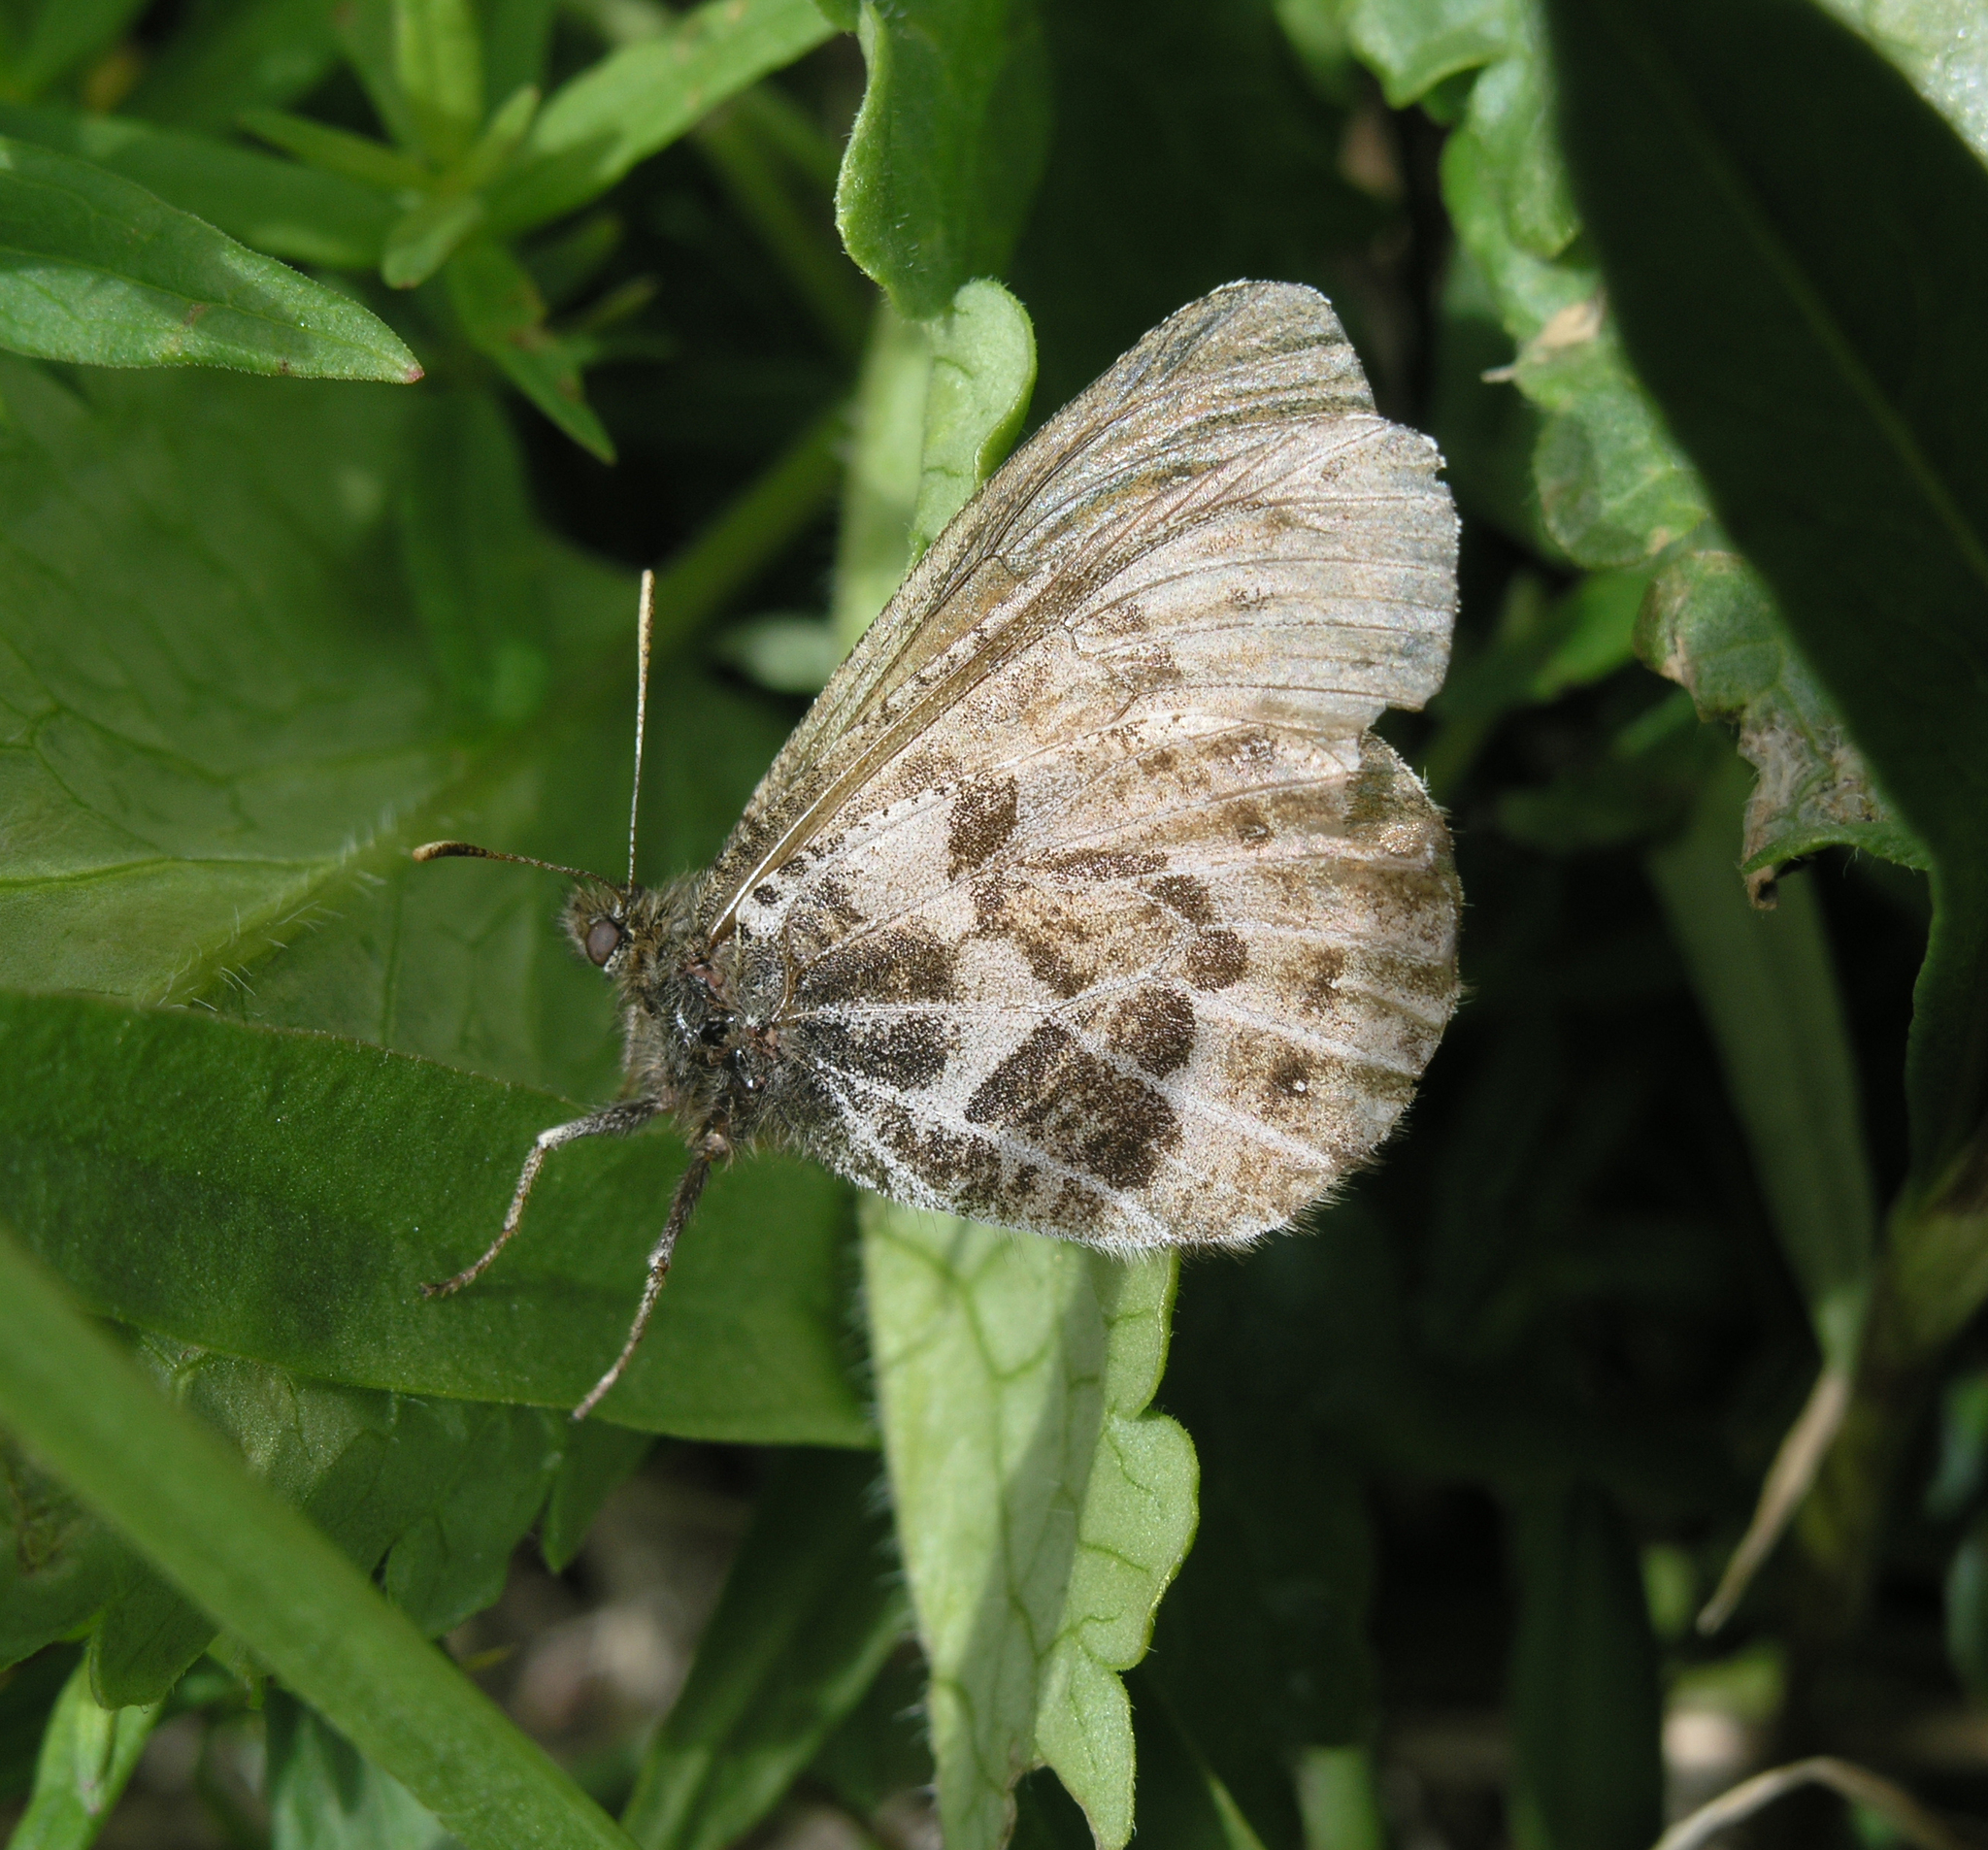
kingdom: Animalia
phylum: Arthropoda
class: Insecta
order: Lepidoptera
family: Nymphalidae
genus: Oeneis
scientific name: Oeneis sculda
